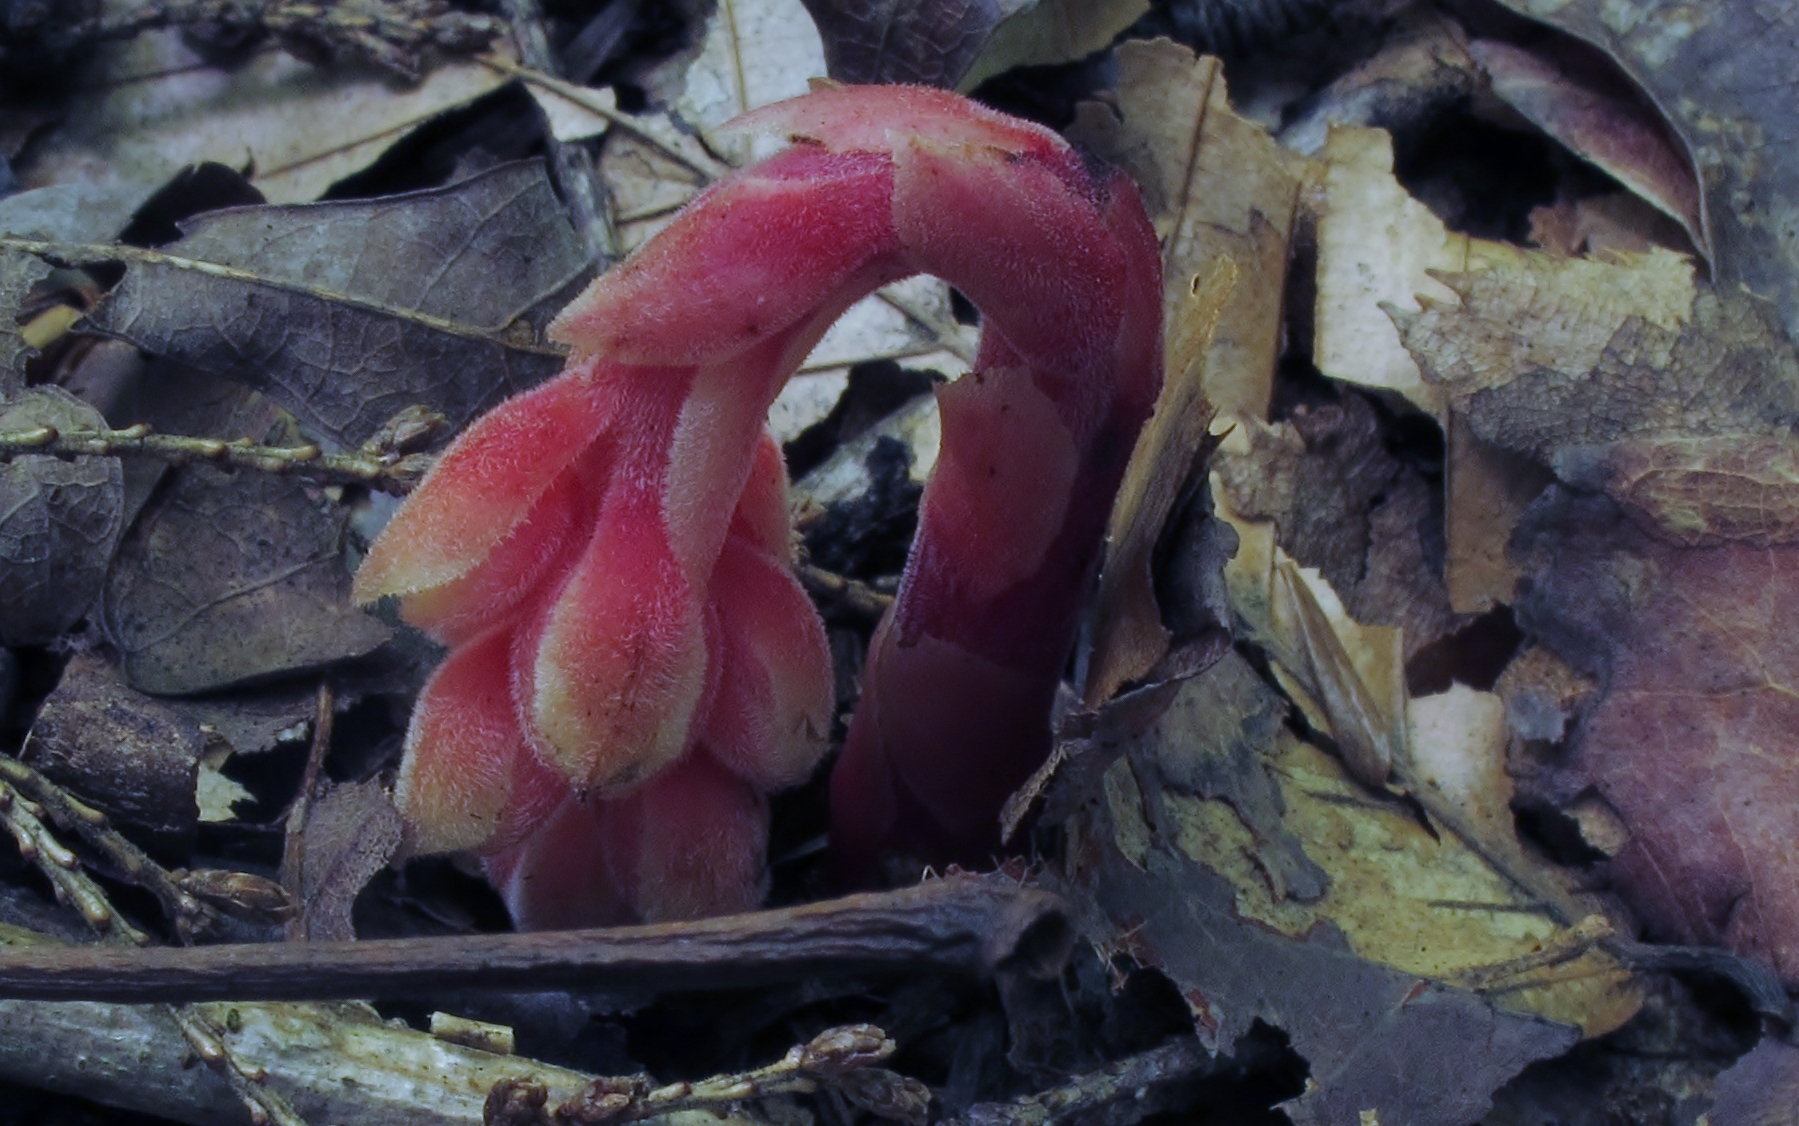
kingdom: Plantae
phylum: Tracheophyta
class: Magnoliopsida
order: Ericales
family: Ericaceae
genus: Hypopitys
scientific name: Hypopitys monotropa
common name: Yellow bird's-nest
